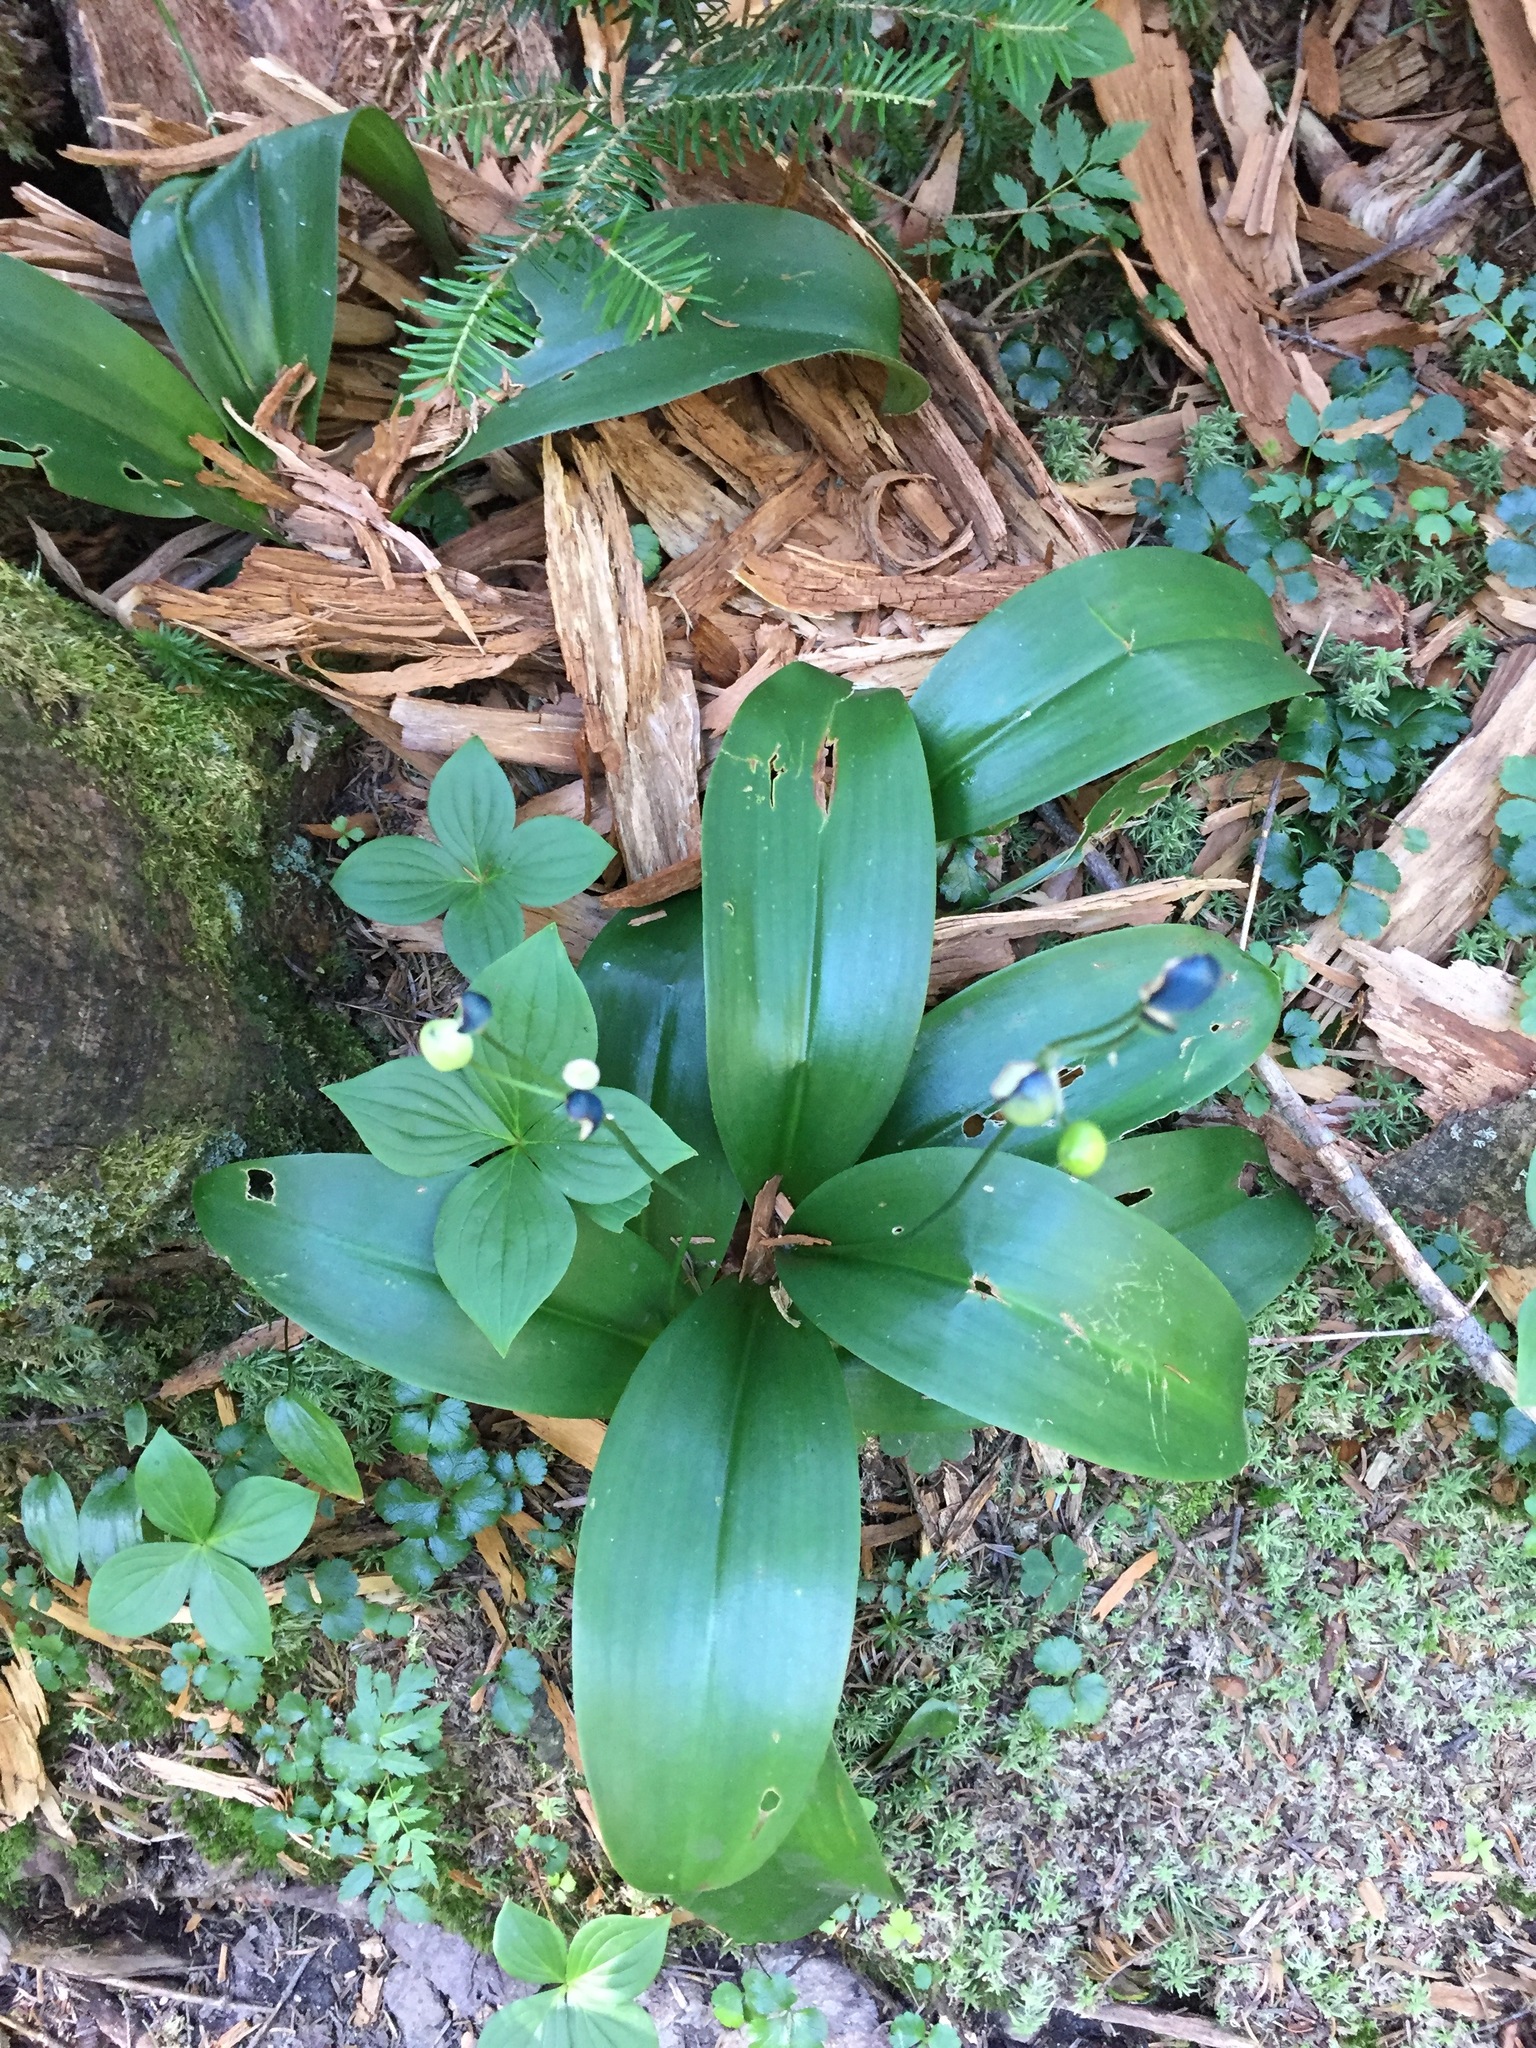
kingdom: Plantae
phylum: Tracheophyta
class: Liliopsida
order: Liliales
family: Liliaceae
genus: Clintonia
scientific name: Clintonia borealis
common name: Yellow clintonia
